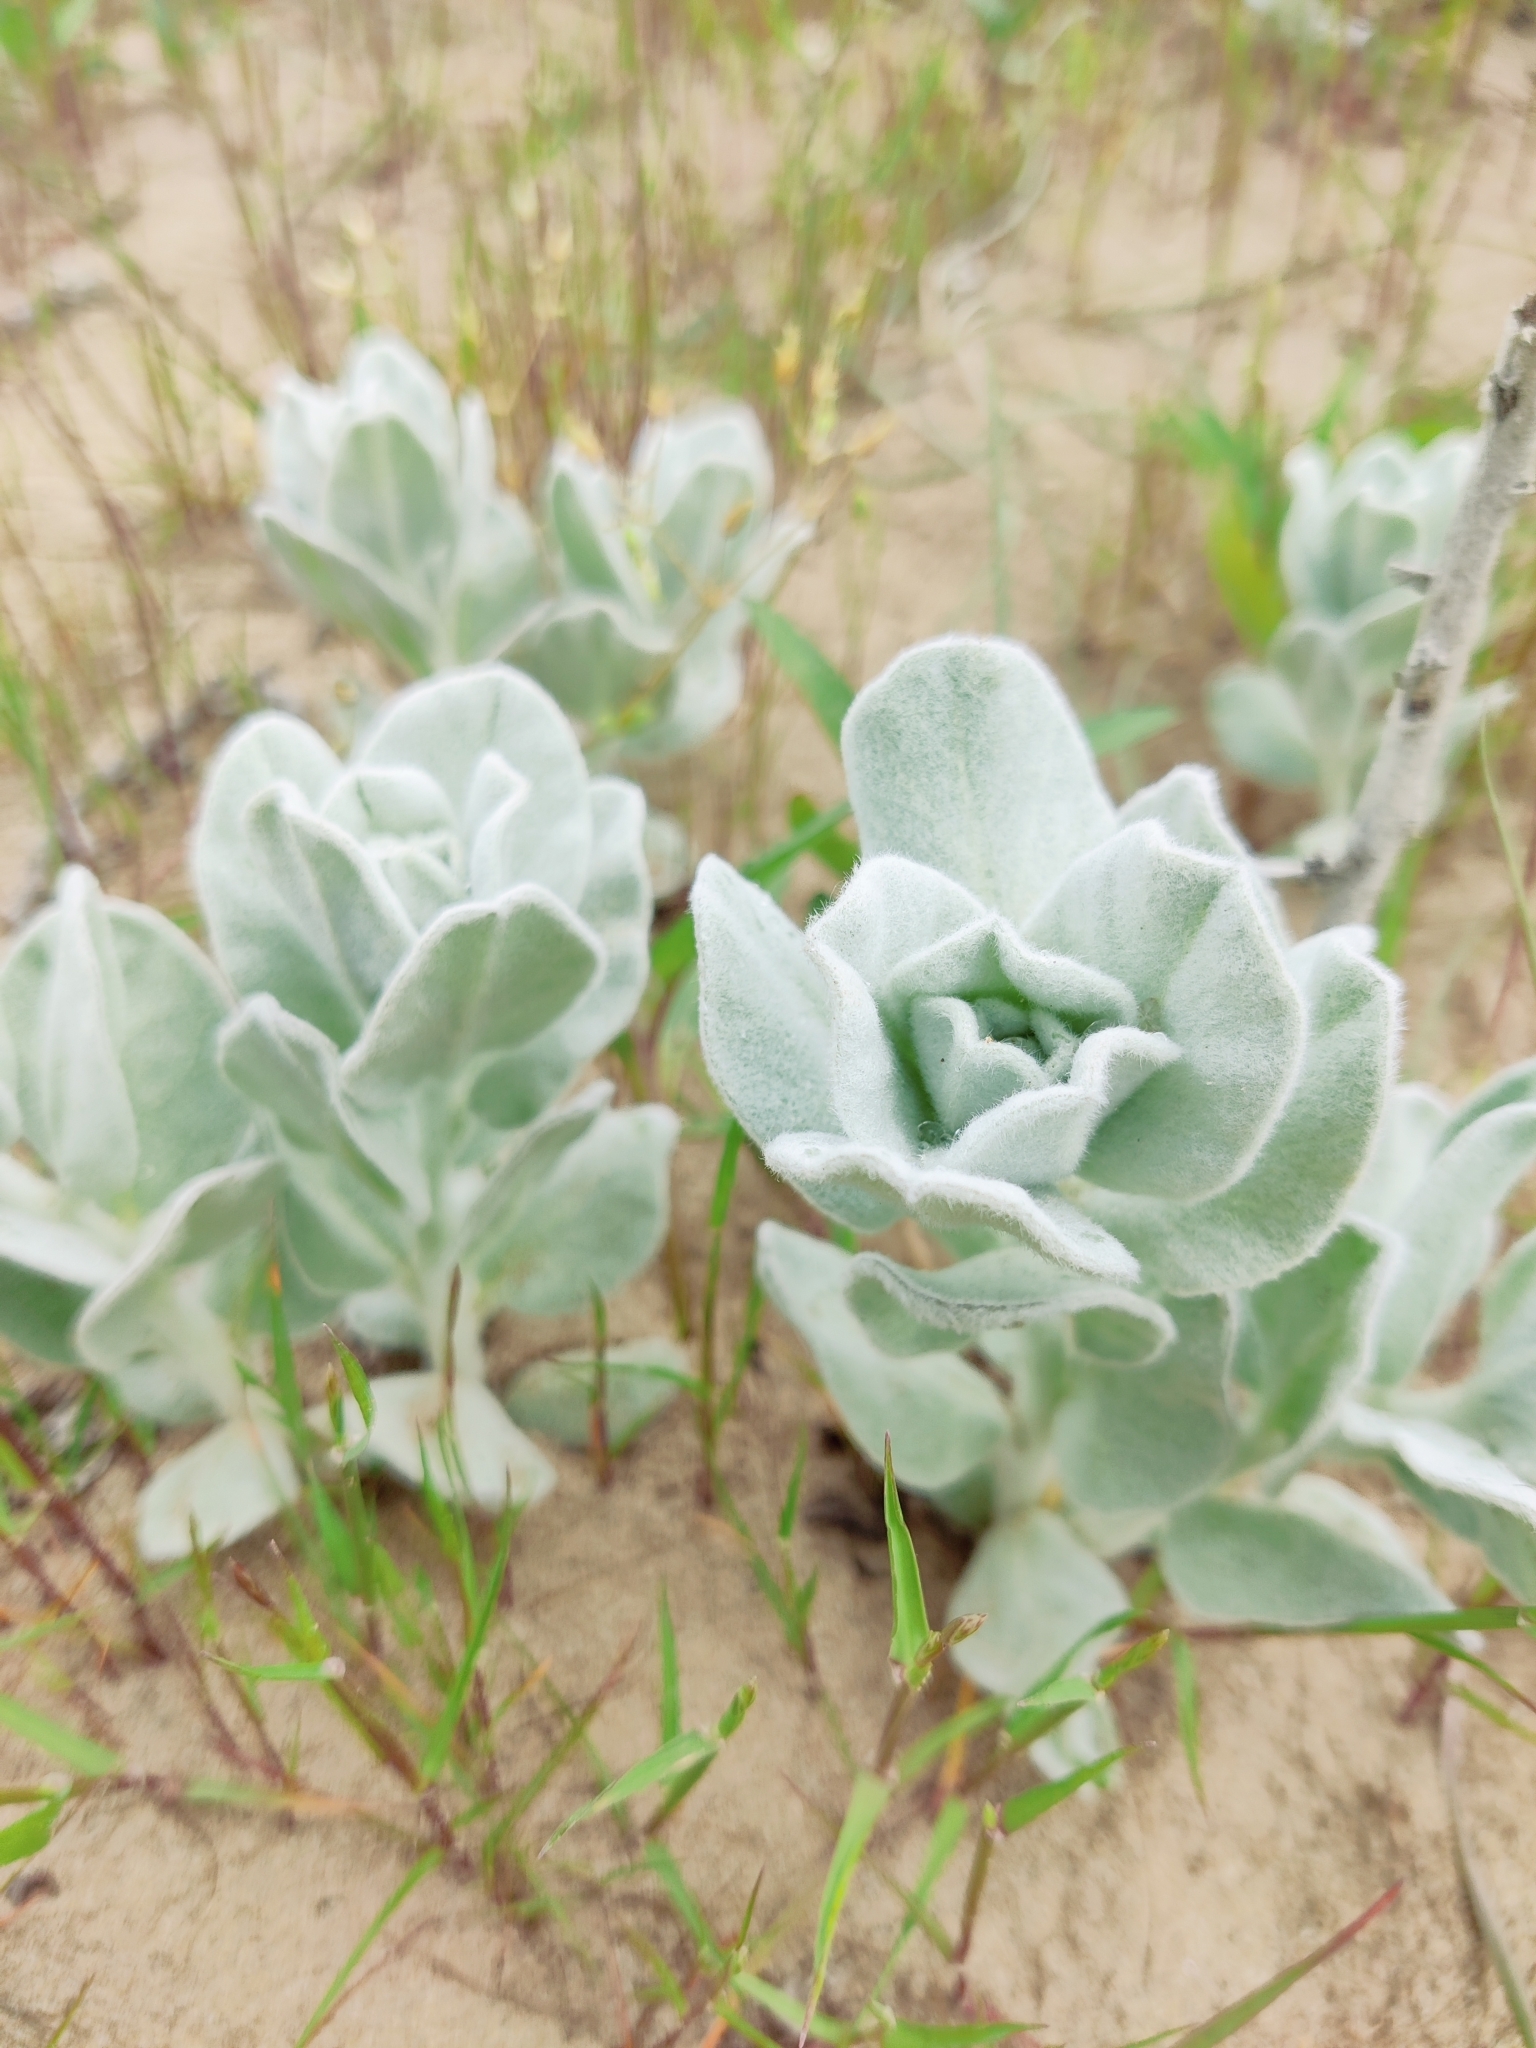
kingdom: Plantae
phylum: Tracheophyta
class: Magnoliopsida
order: Solanales
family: Convolvulaceae
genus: Convolvulus
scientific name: Convolvulus persicus
